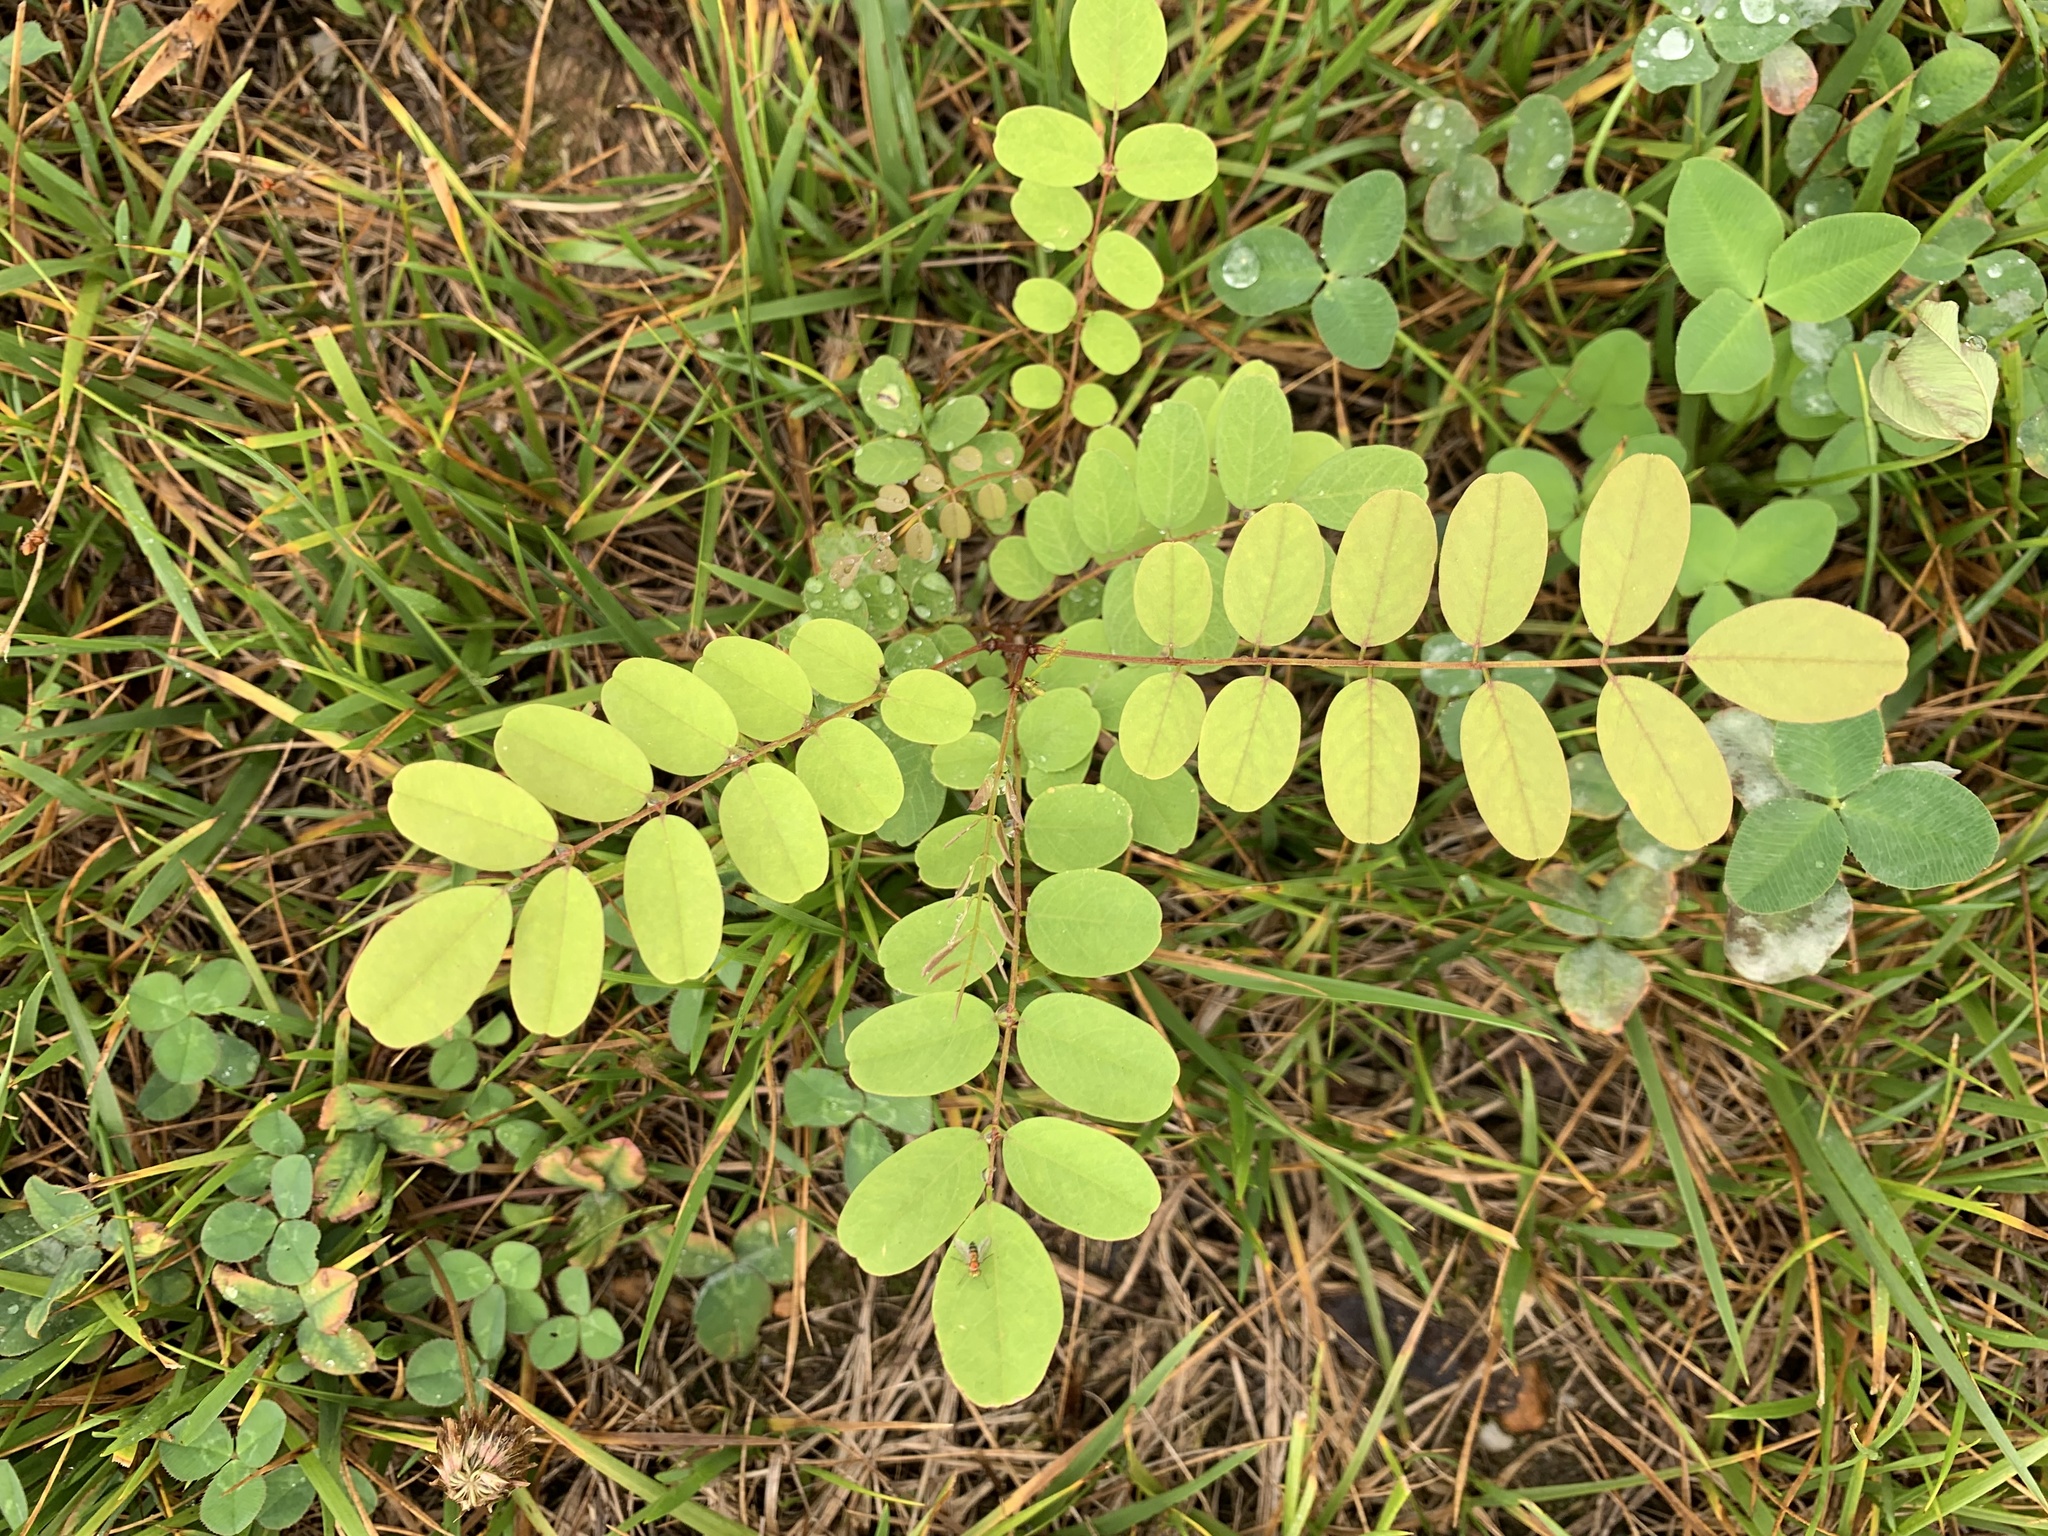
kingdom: Plantae
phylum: Tracheophyta
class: Magnoliopsida
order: Fabales
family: Fabaceae
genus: Robinia
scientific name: Robinia pseudoacacia
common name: Black locust
